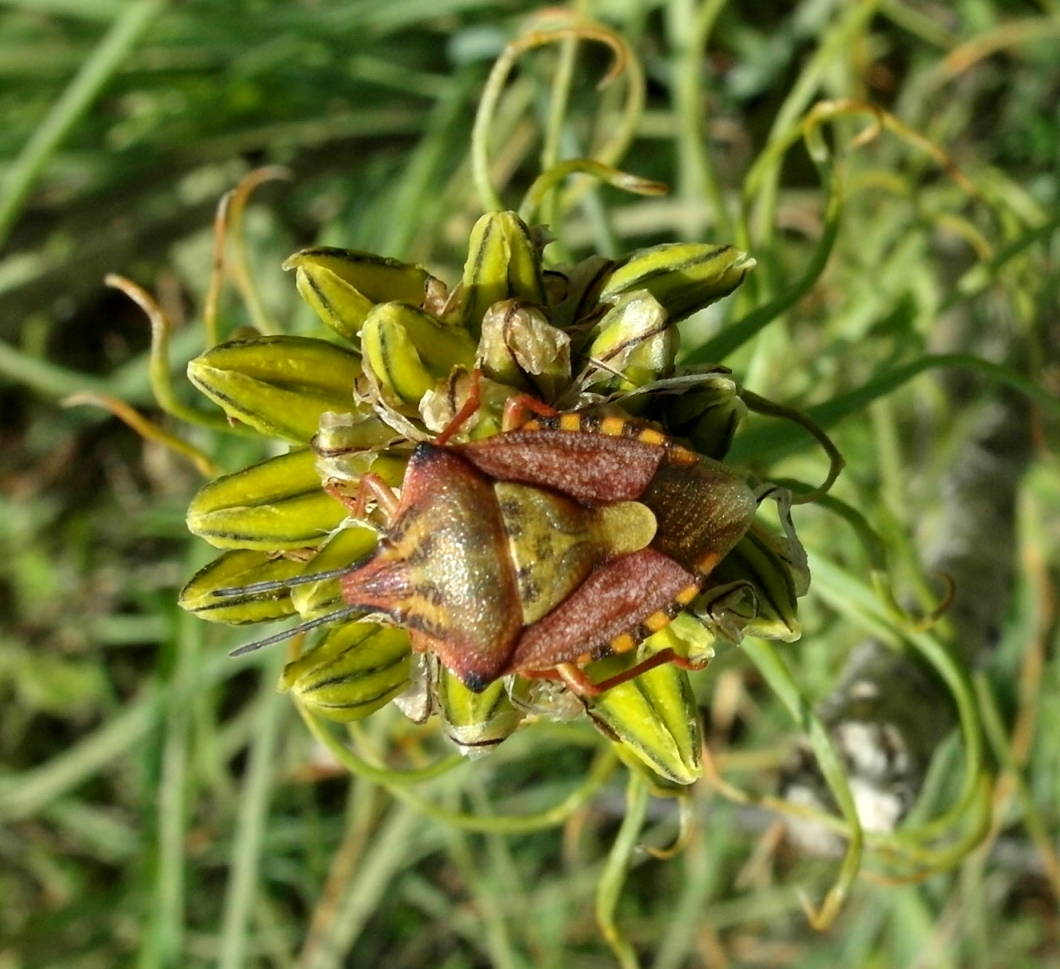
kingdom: Animalia
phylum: Arthropoda
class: Insecta
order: Hemiptera
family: Pentatomidae
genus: Carpocoris
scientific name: Carpocoris purpureipennis
